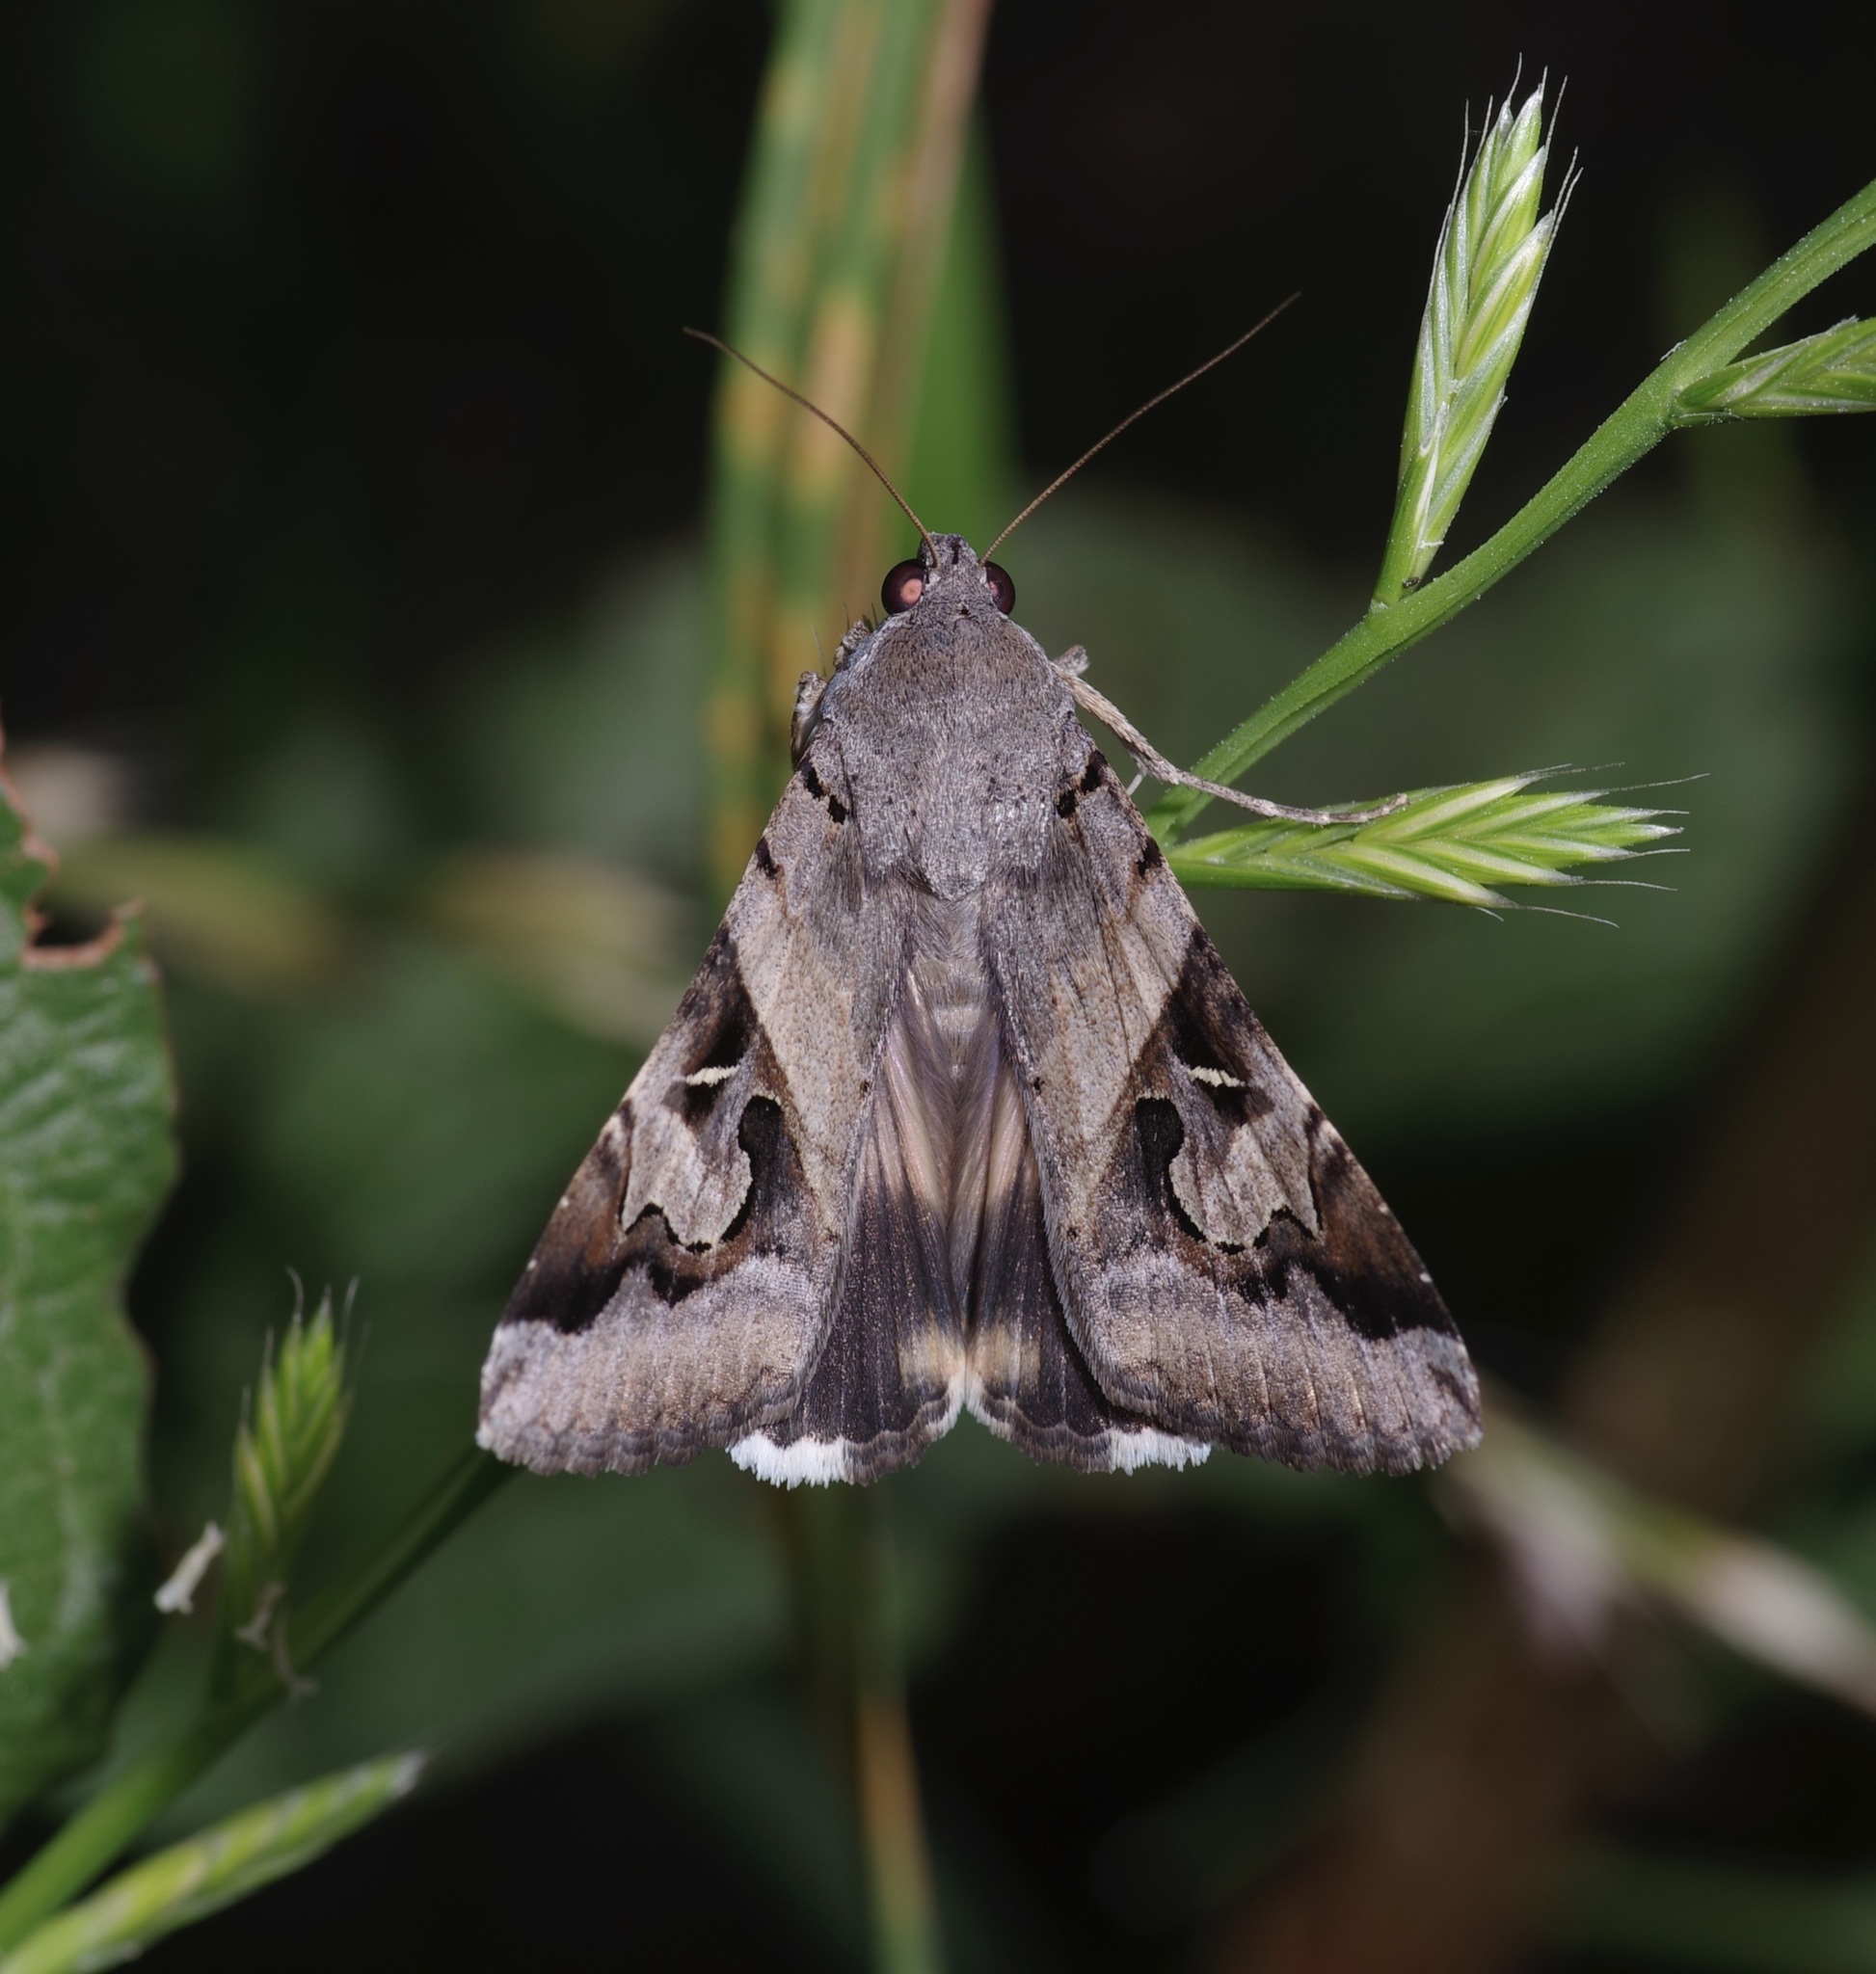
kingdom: Animalia
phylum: Arthropoda
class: Insecta
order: Lepidoptera
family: Erebidae
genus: Melipotis
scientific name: Melipotis indomita
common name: Moth
